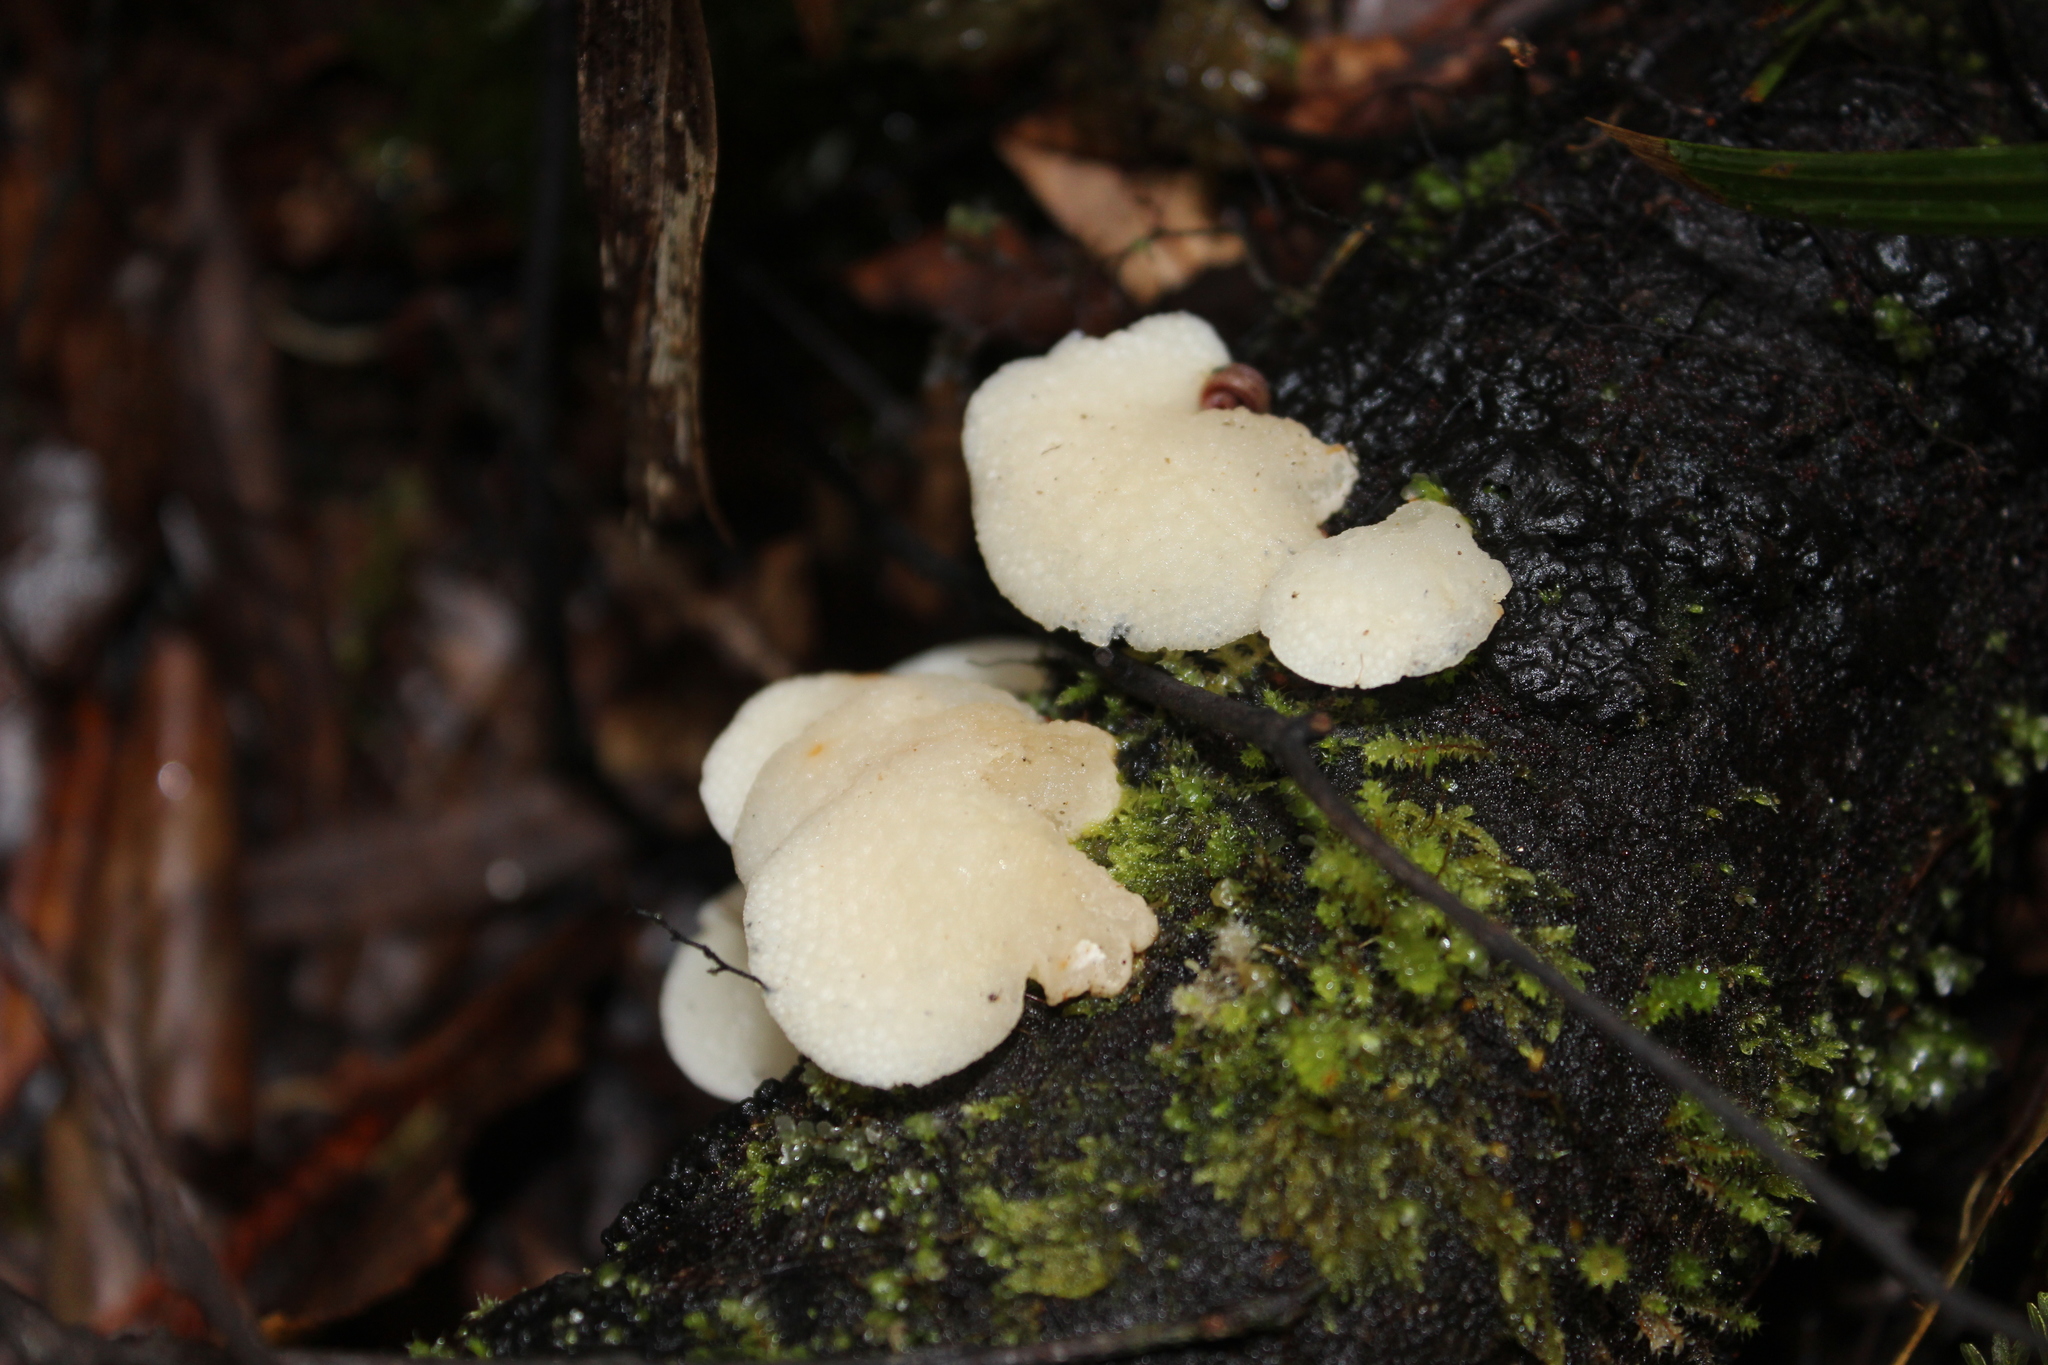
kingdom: Fungi
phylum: Basidiomycota
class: Agaricomycetes
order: Agaricales
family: Mycenaceae
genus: Favolaschia
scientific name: Favolaschia pustulosa
